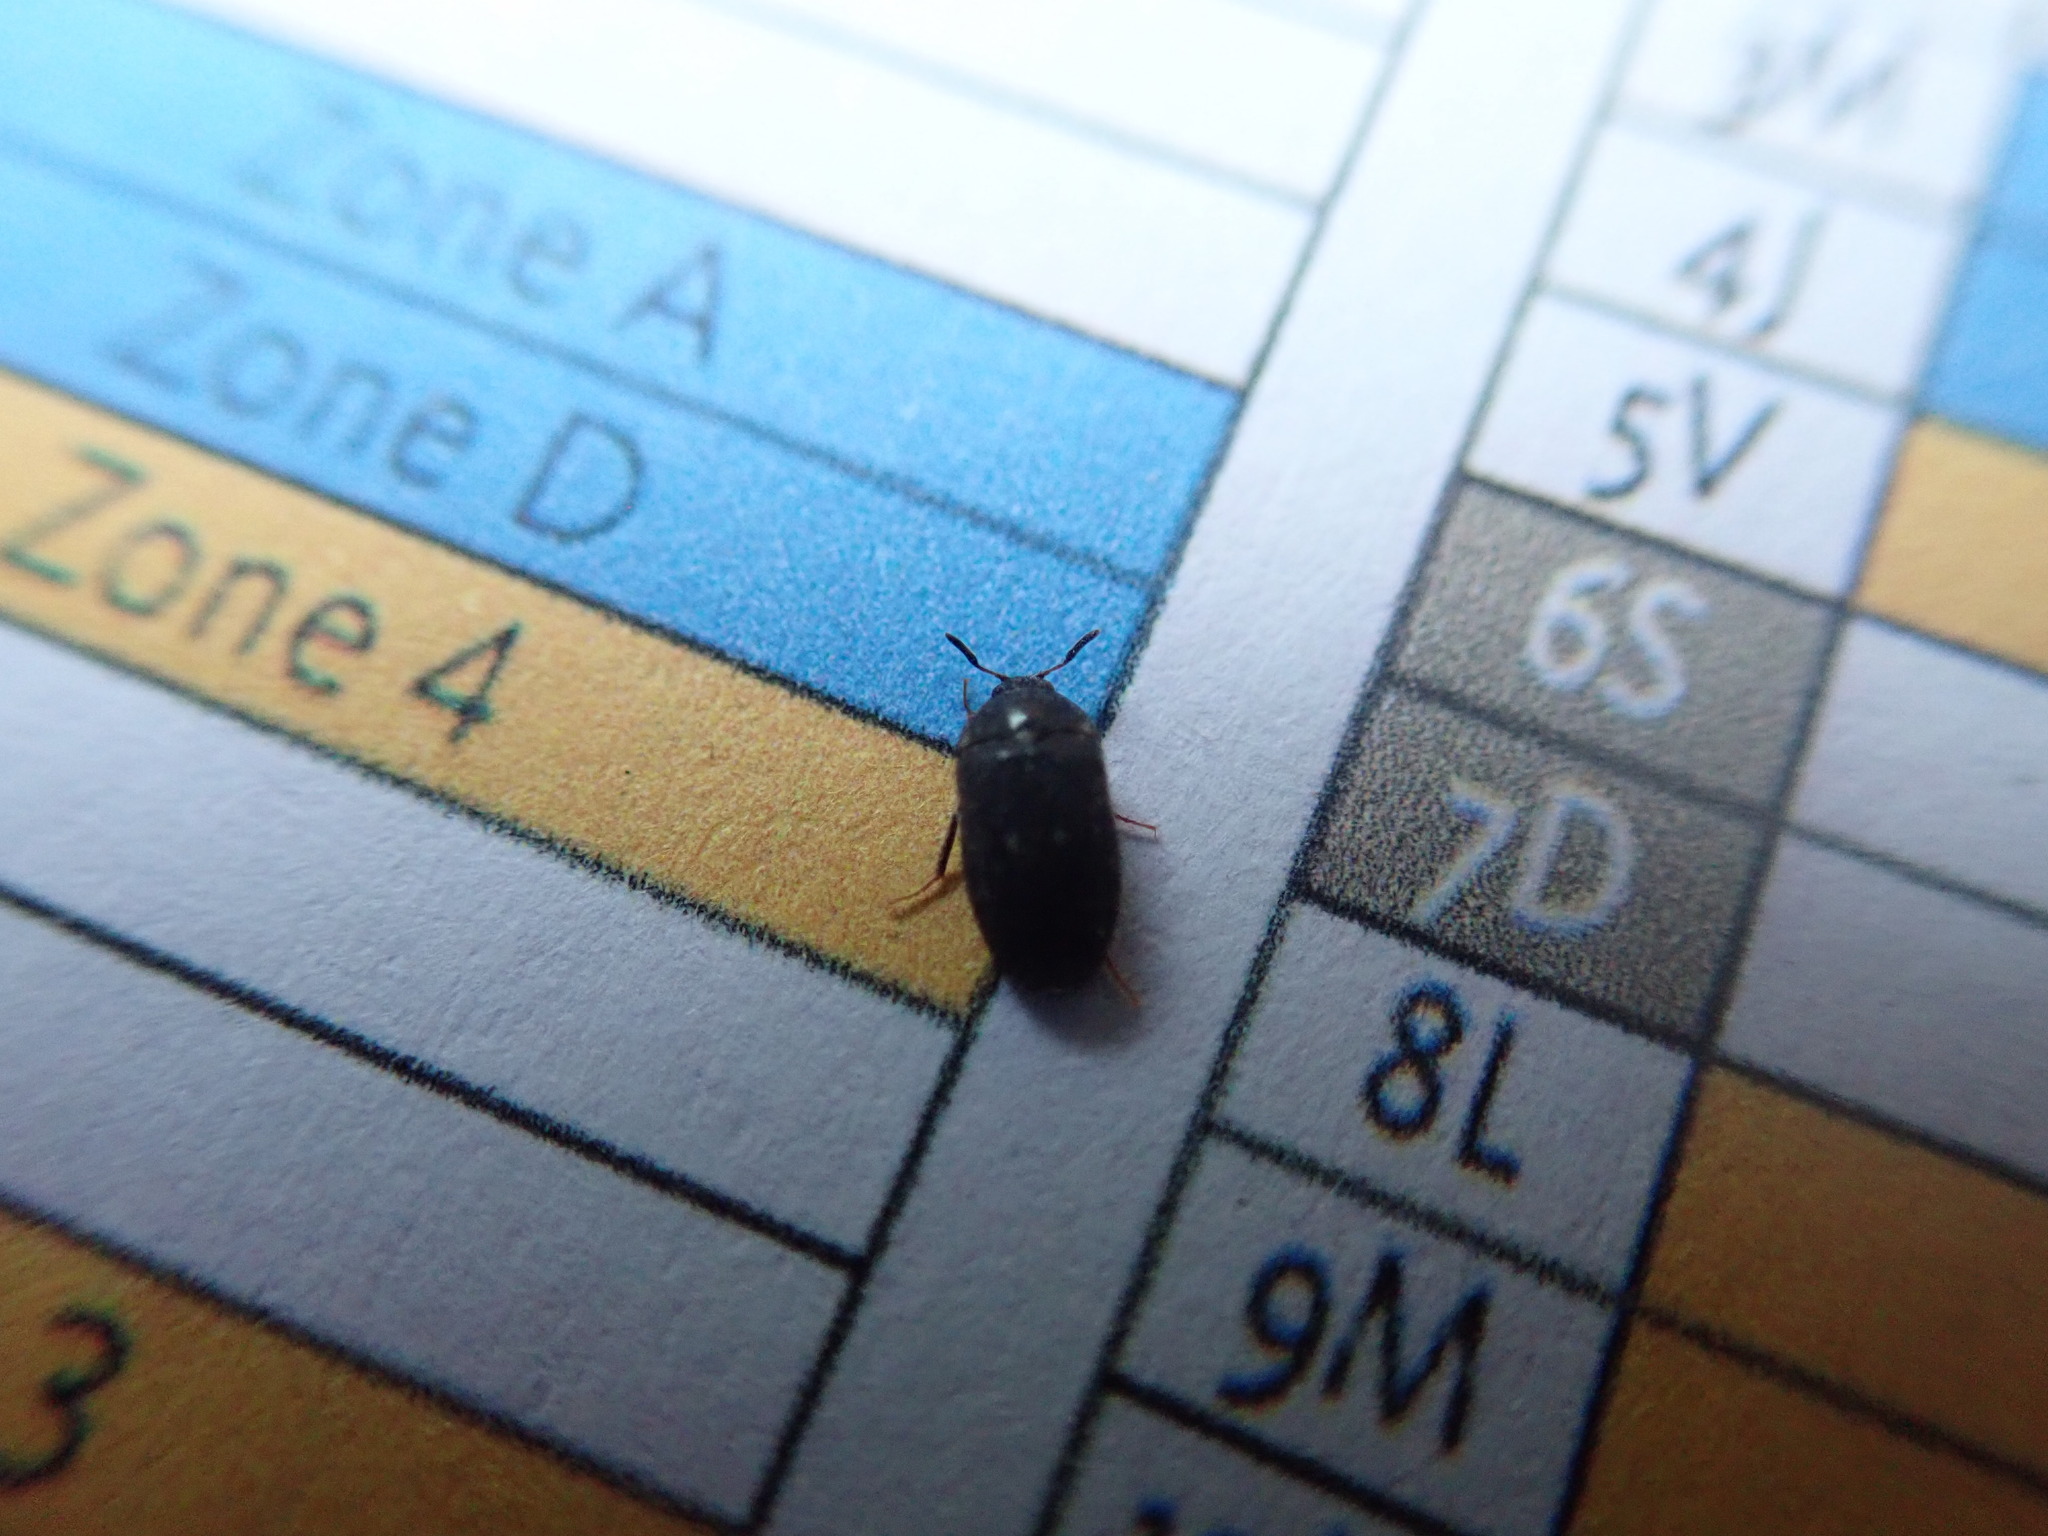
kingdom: Animalia
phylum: Arthropoda
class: Insecta
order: Coleoptera
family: Dermestidae
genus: Attagenus
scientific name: Attagenus pellio
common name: Two-spotted carpet beetle
